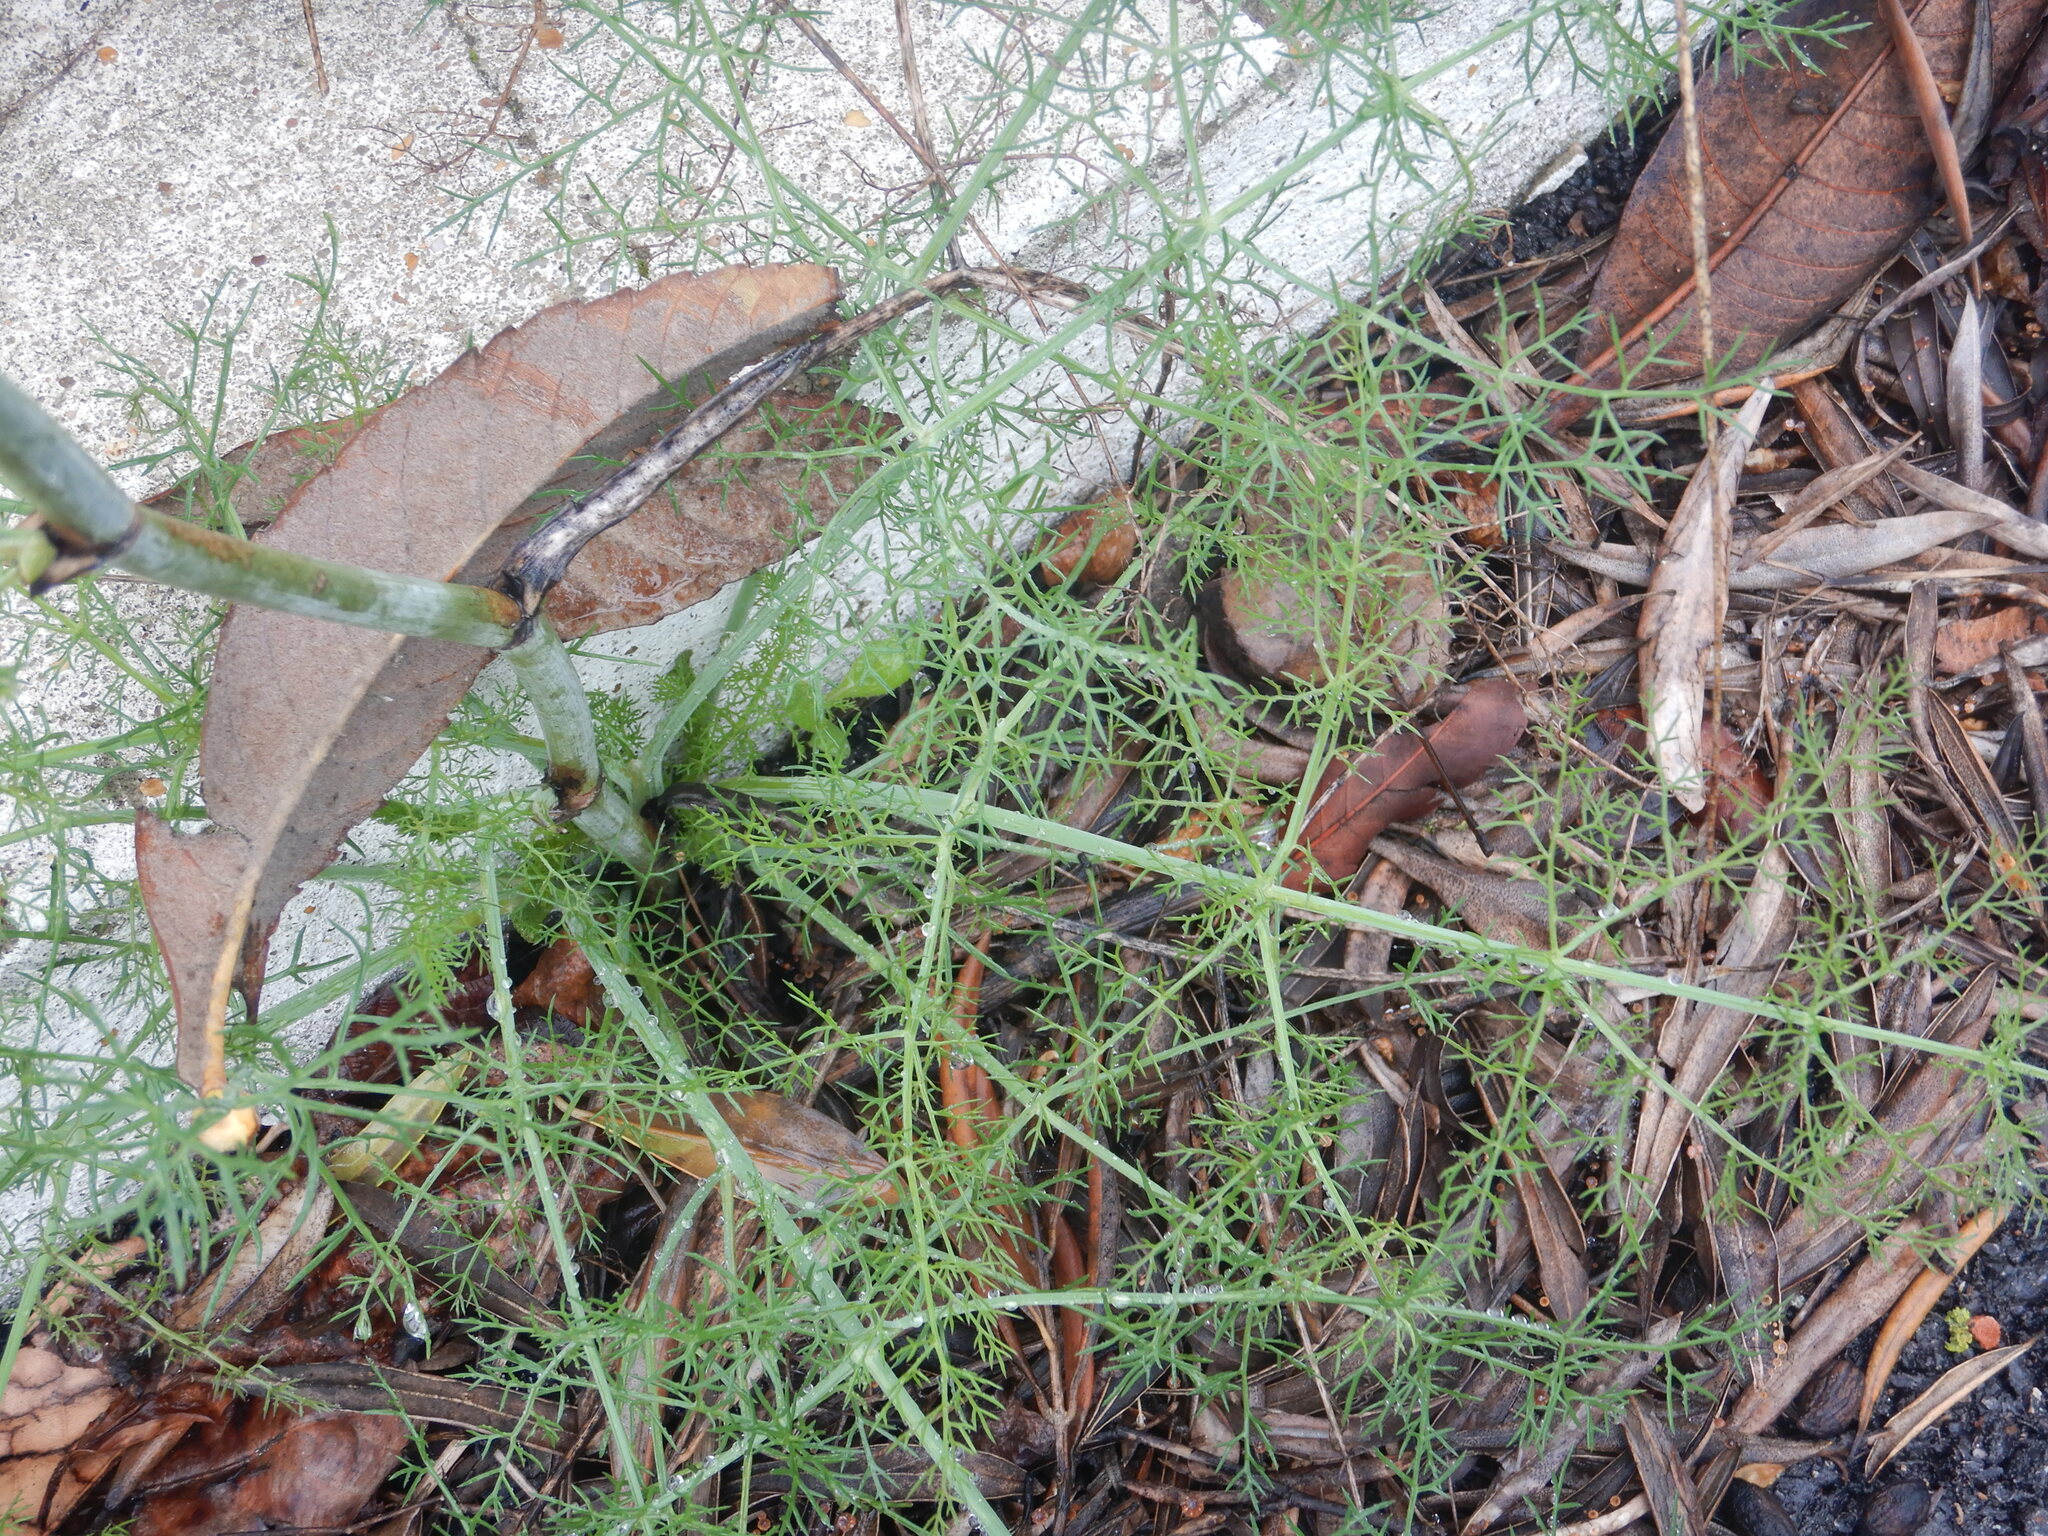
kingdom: Plantae
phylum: Tracheophyta
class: Magnoliopsida
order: Apiales
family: Apiaceae
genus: Foeniculum
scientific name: Foeniculum vulgare
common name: Fennel
